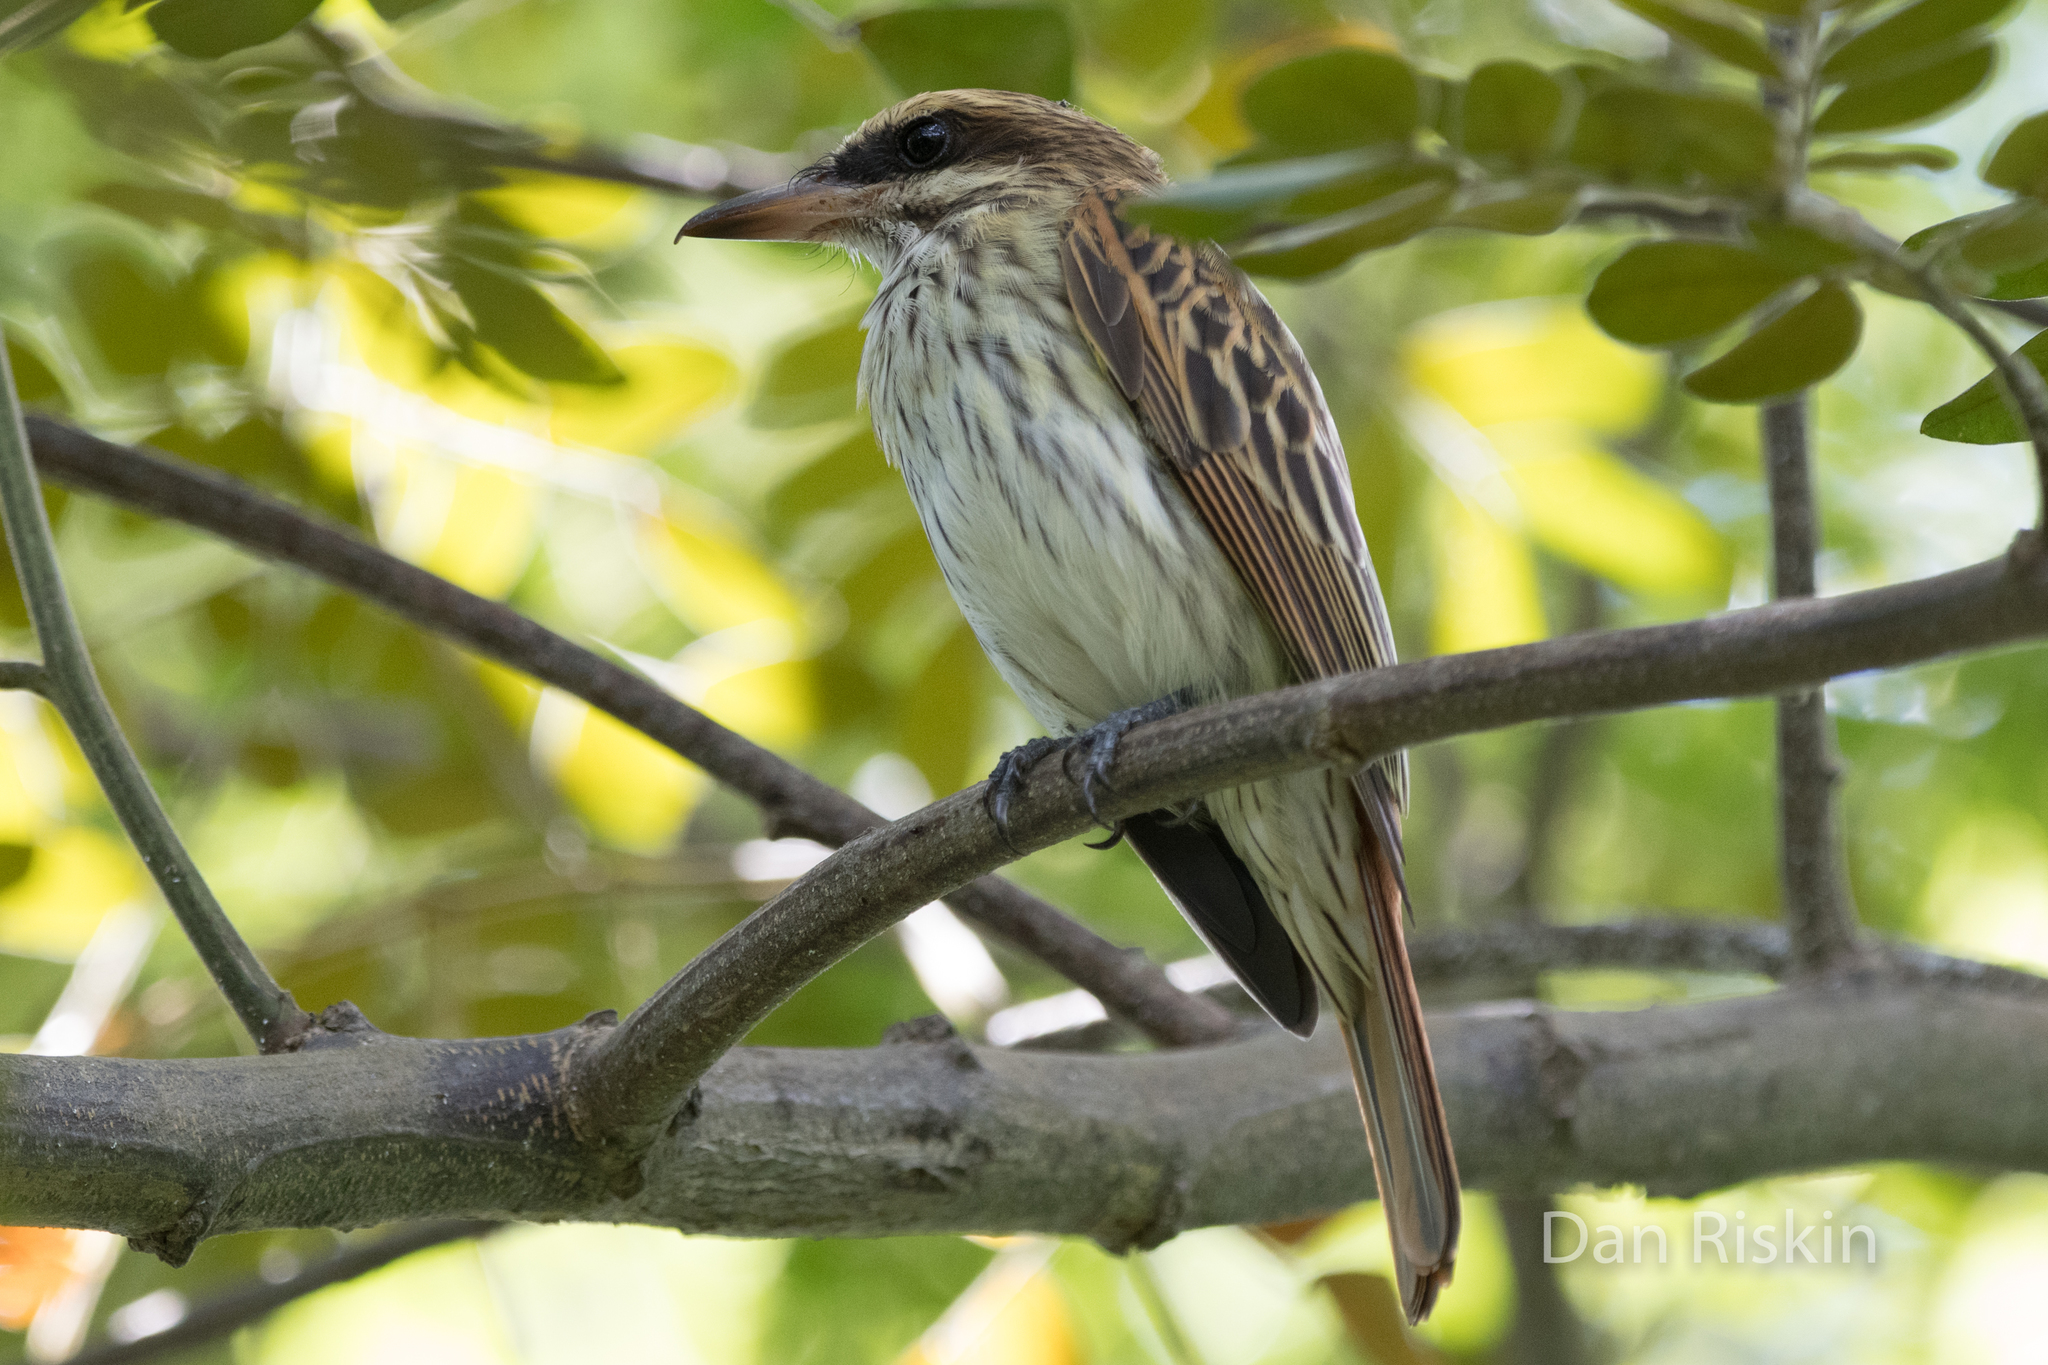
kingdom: Animalia
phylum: Chordata
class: Aves
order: Passeriformes
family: Tyrannidae
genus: Myiodynastes
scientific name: Myiodynastes maculatus
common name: Streaked flycatcher
